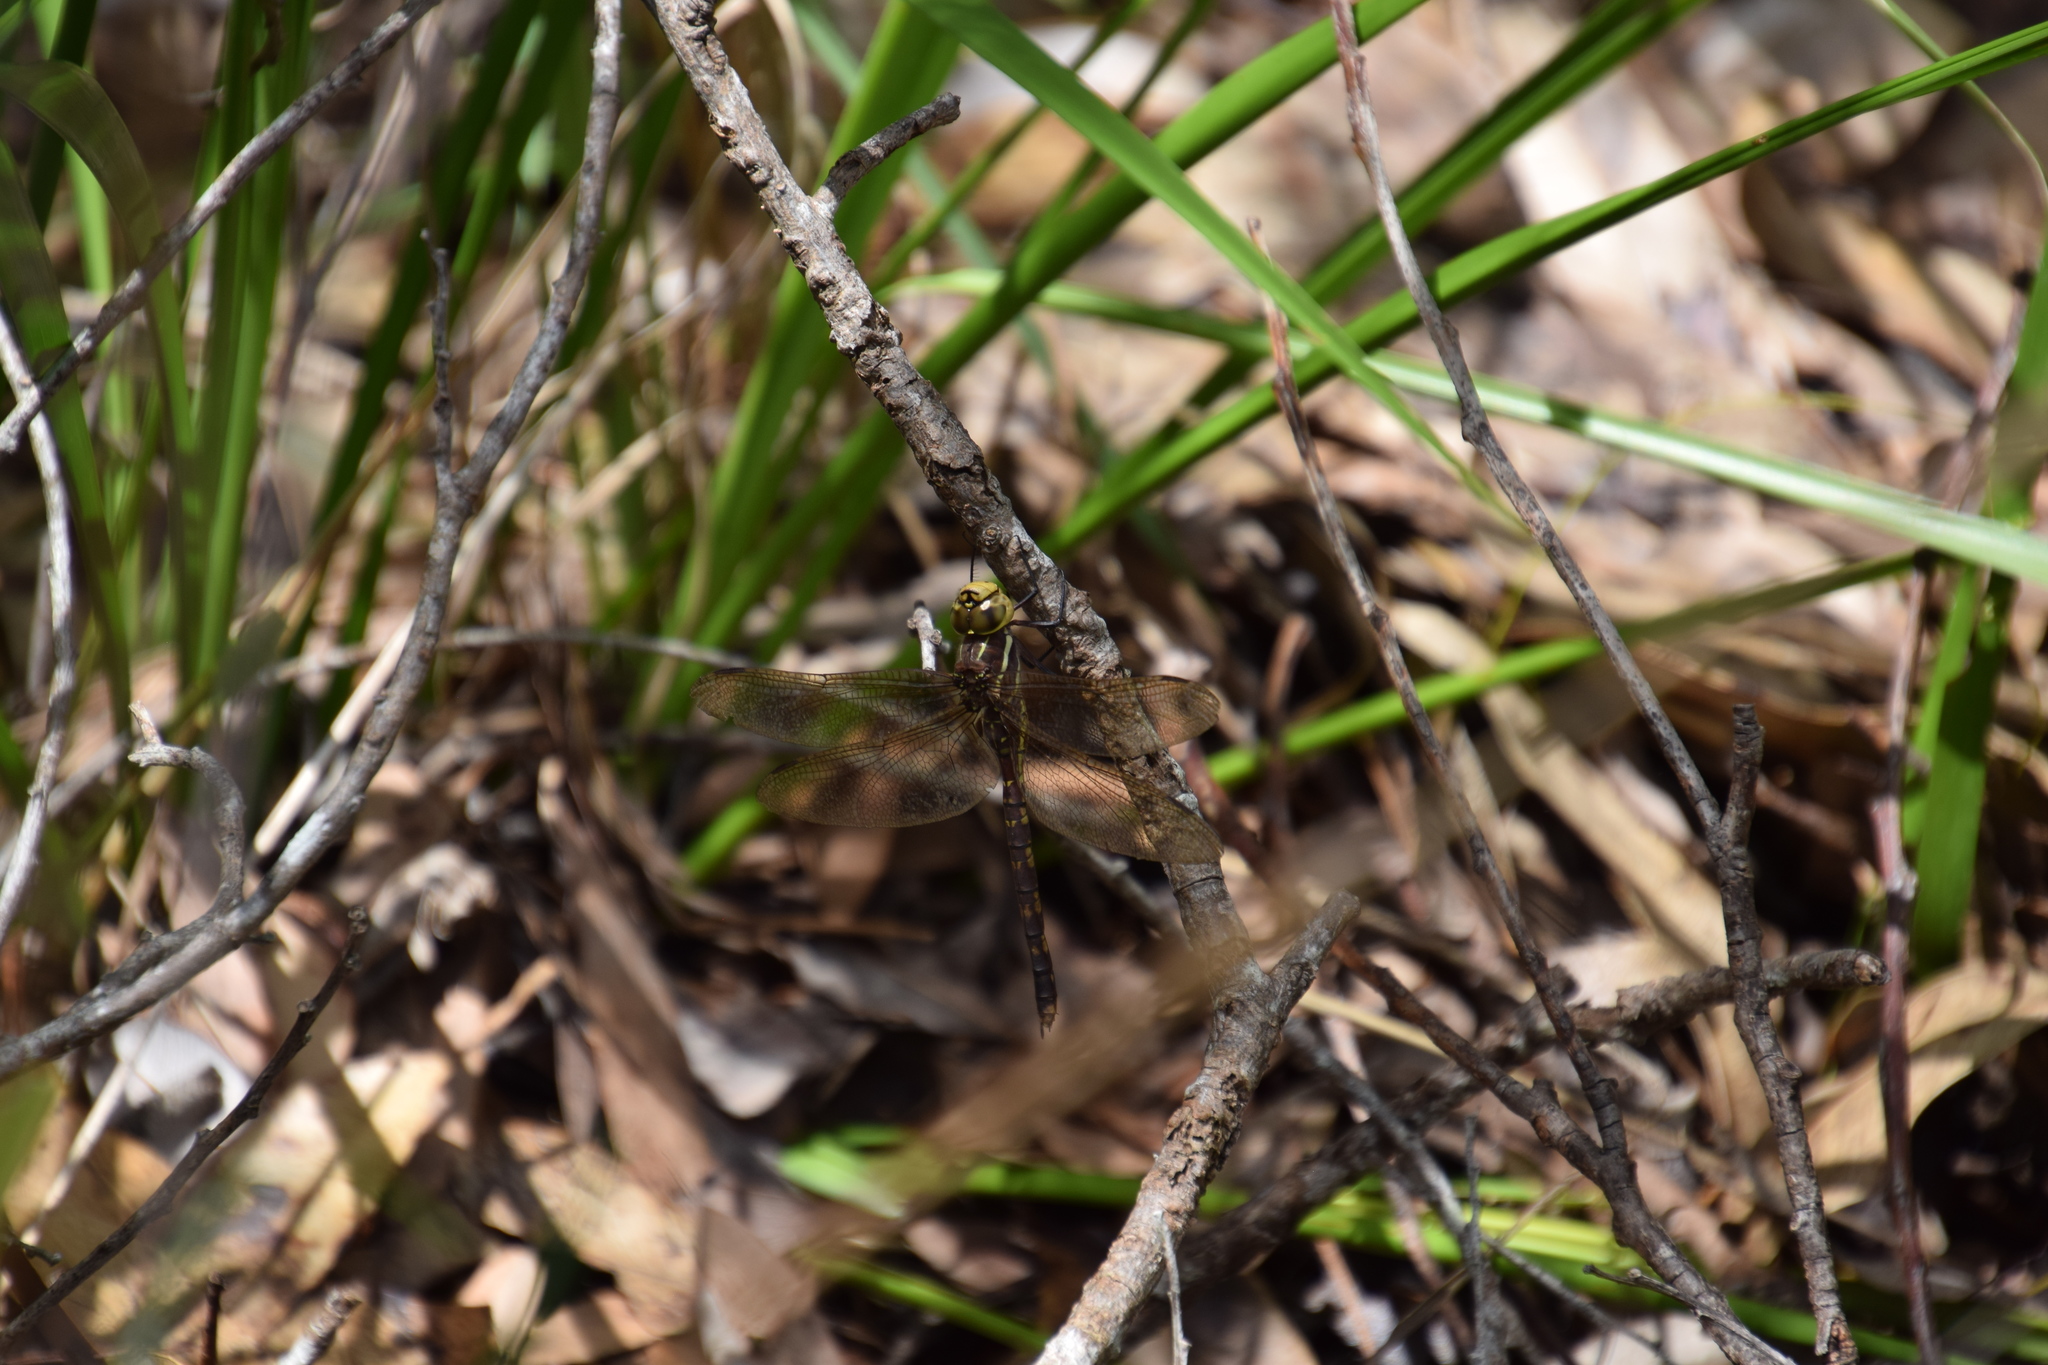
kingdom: Animalia
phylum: Arthropoda
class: Insecta
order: Odonata
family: Aeshnidae
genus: Aeshna
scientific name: Aeshna brevistyla
